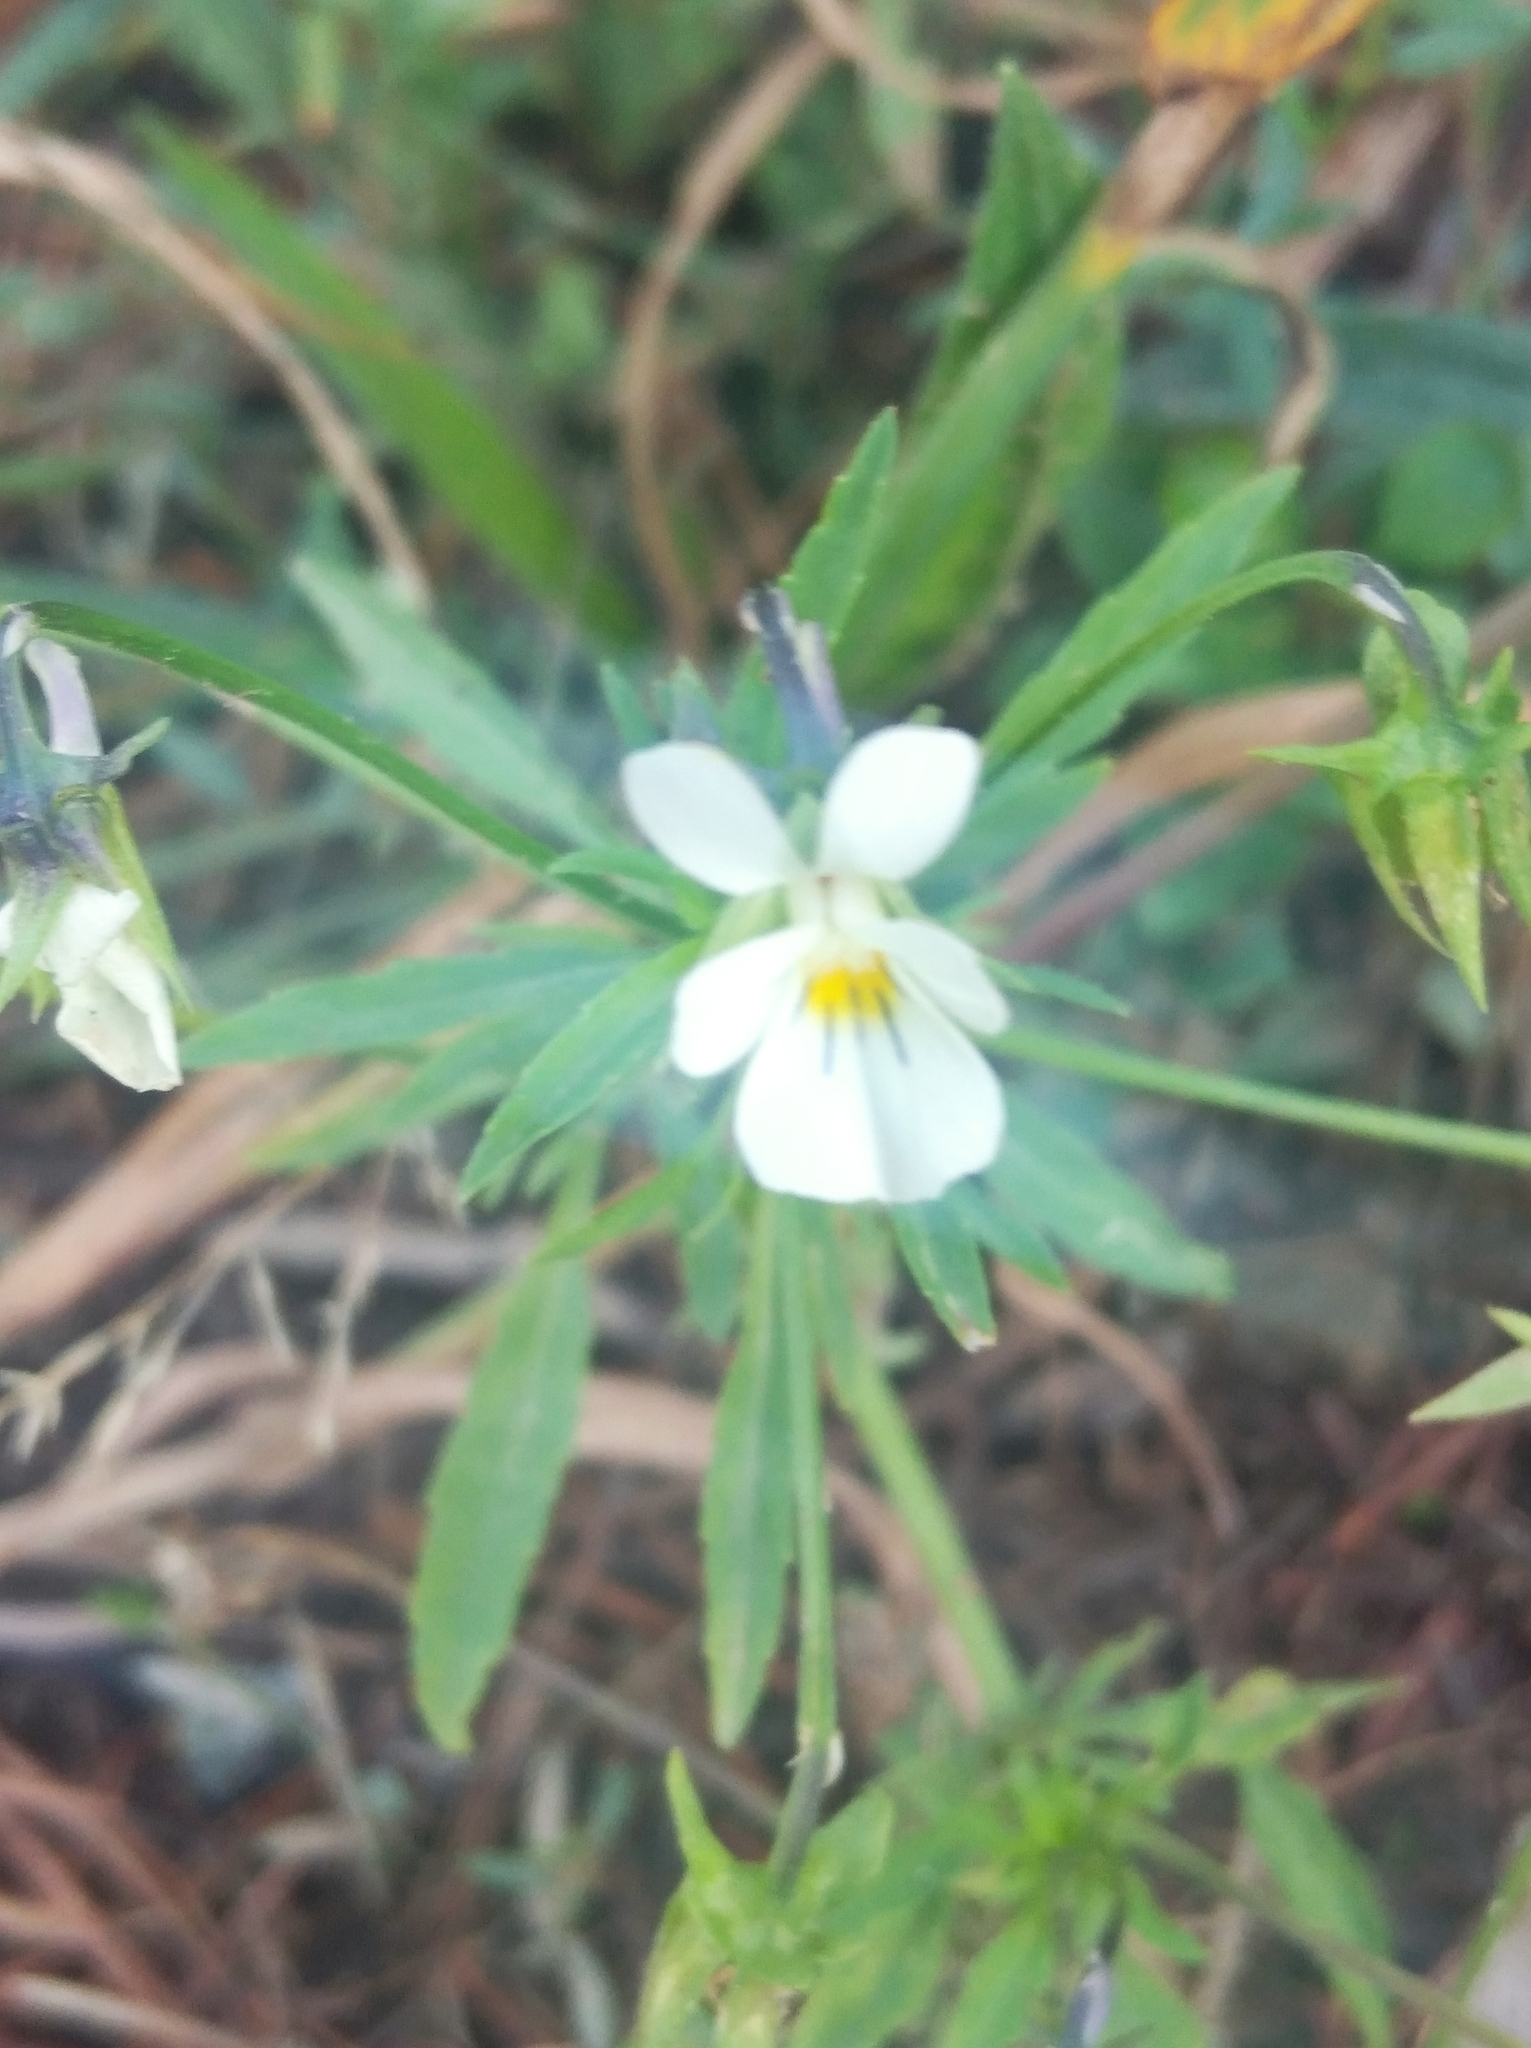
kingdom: Plantae
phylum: Tracheophyta
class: Magnoliopsida
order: Malpighiales
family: Violaceae
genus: Viola
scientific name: Viola arvensis
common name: Field pansy
